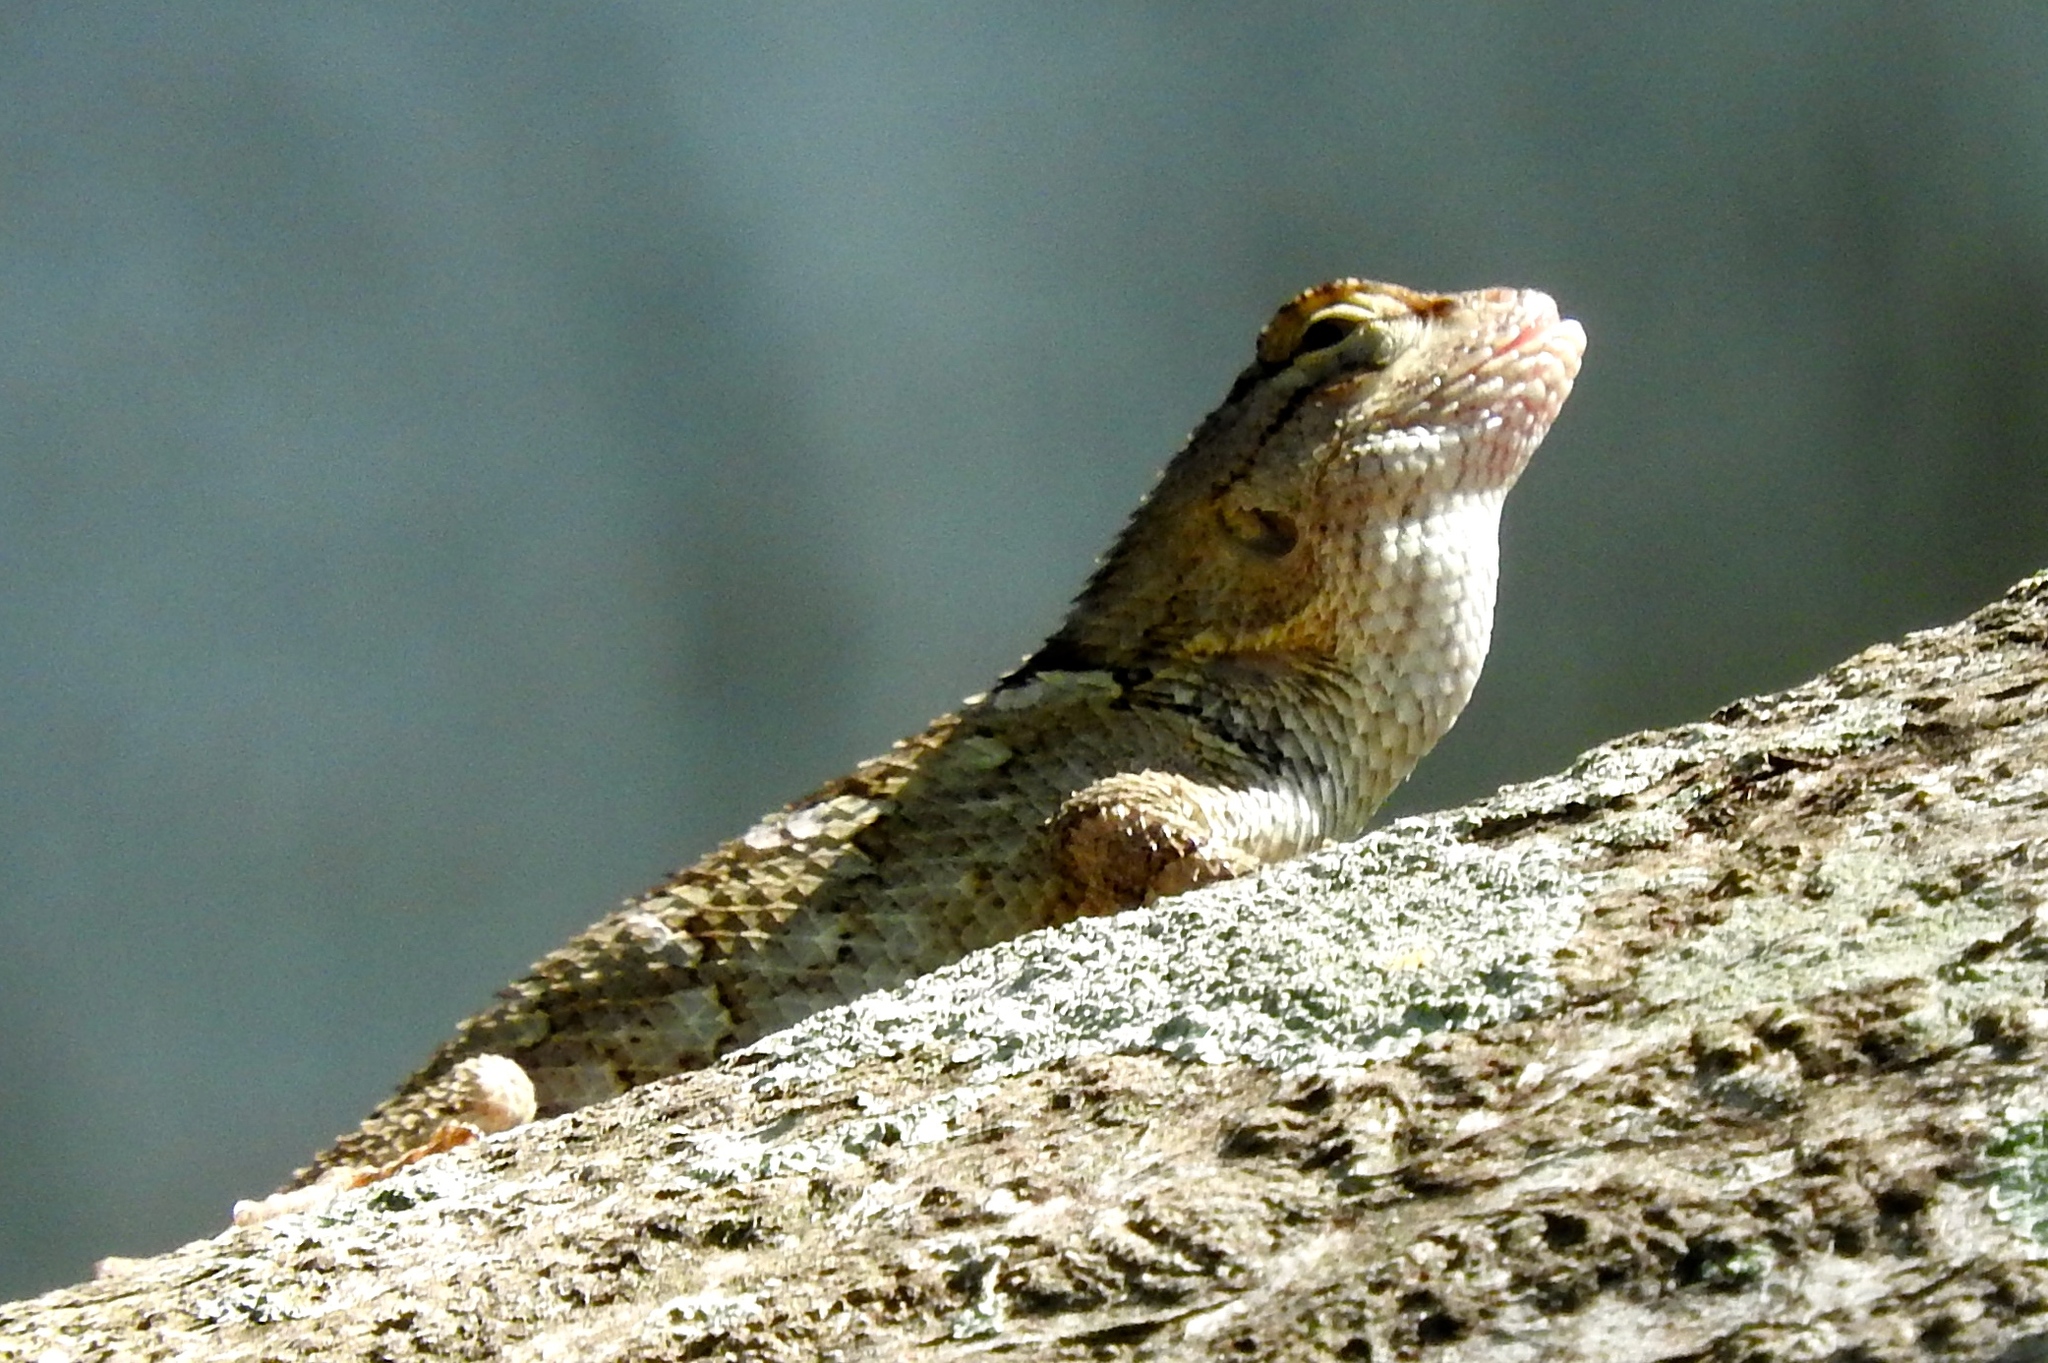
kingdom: Animalia
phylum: Chordata
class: Squamata
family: Phrynosomatidae
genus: Sceloporus
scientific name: Sceloporus clarkii
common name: Clark's spiny lizard
